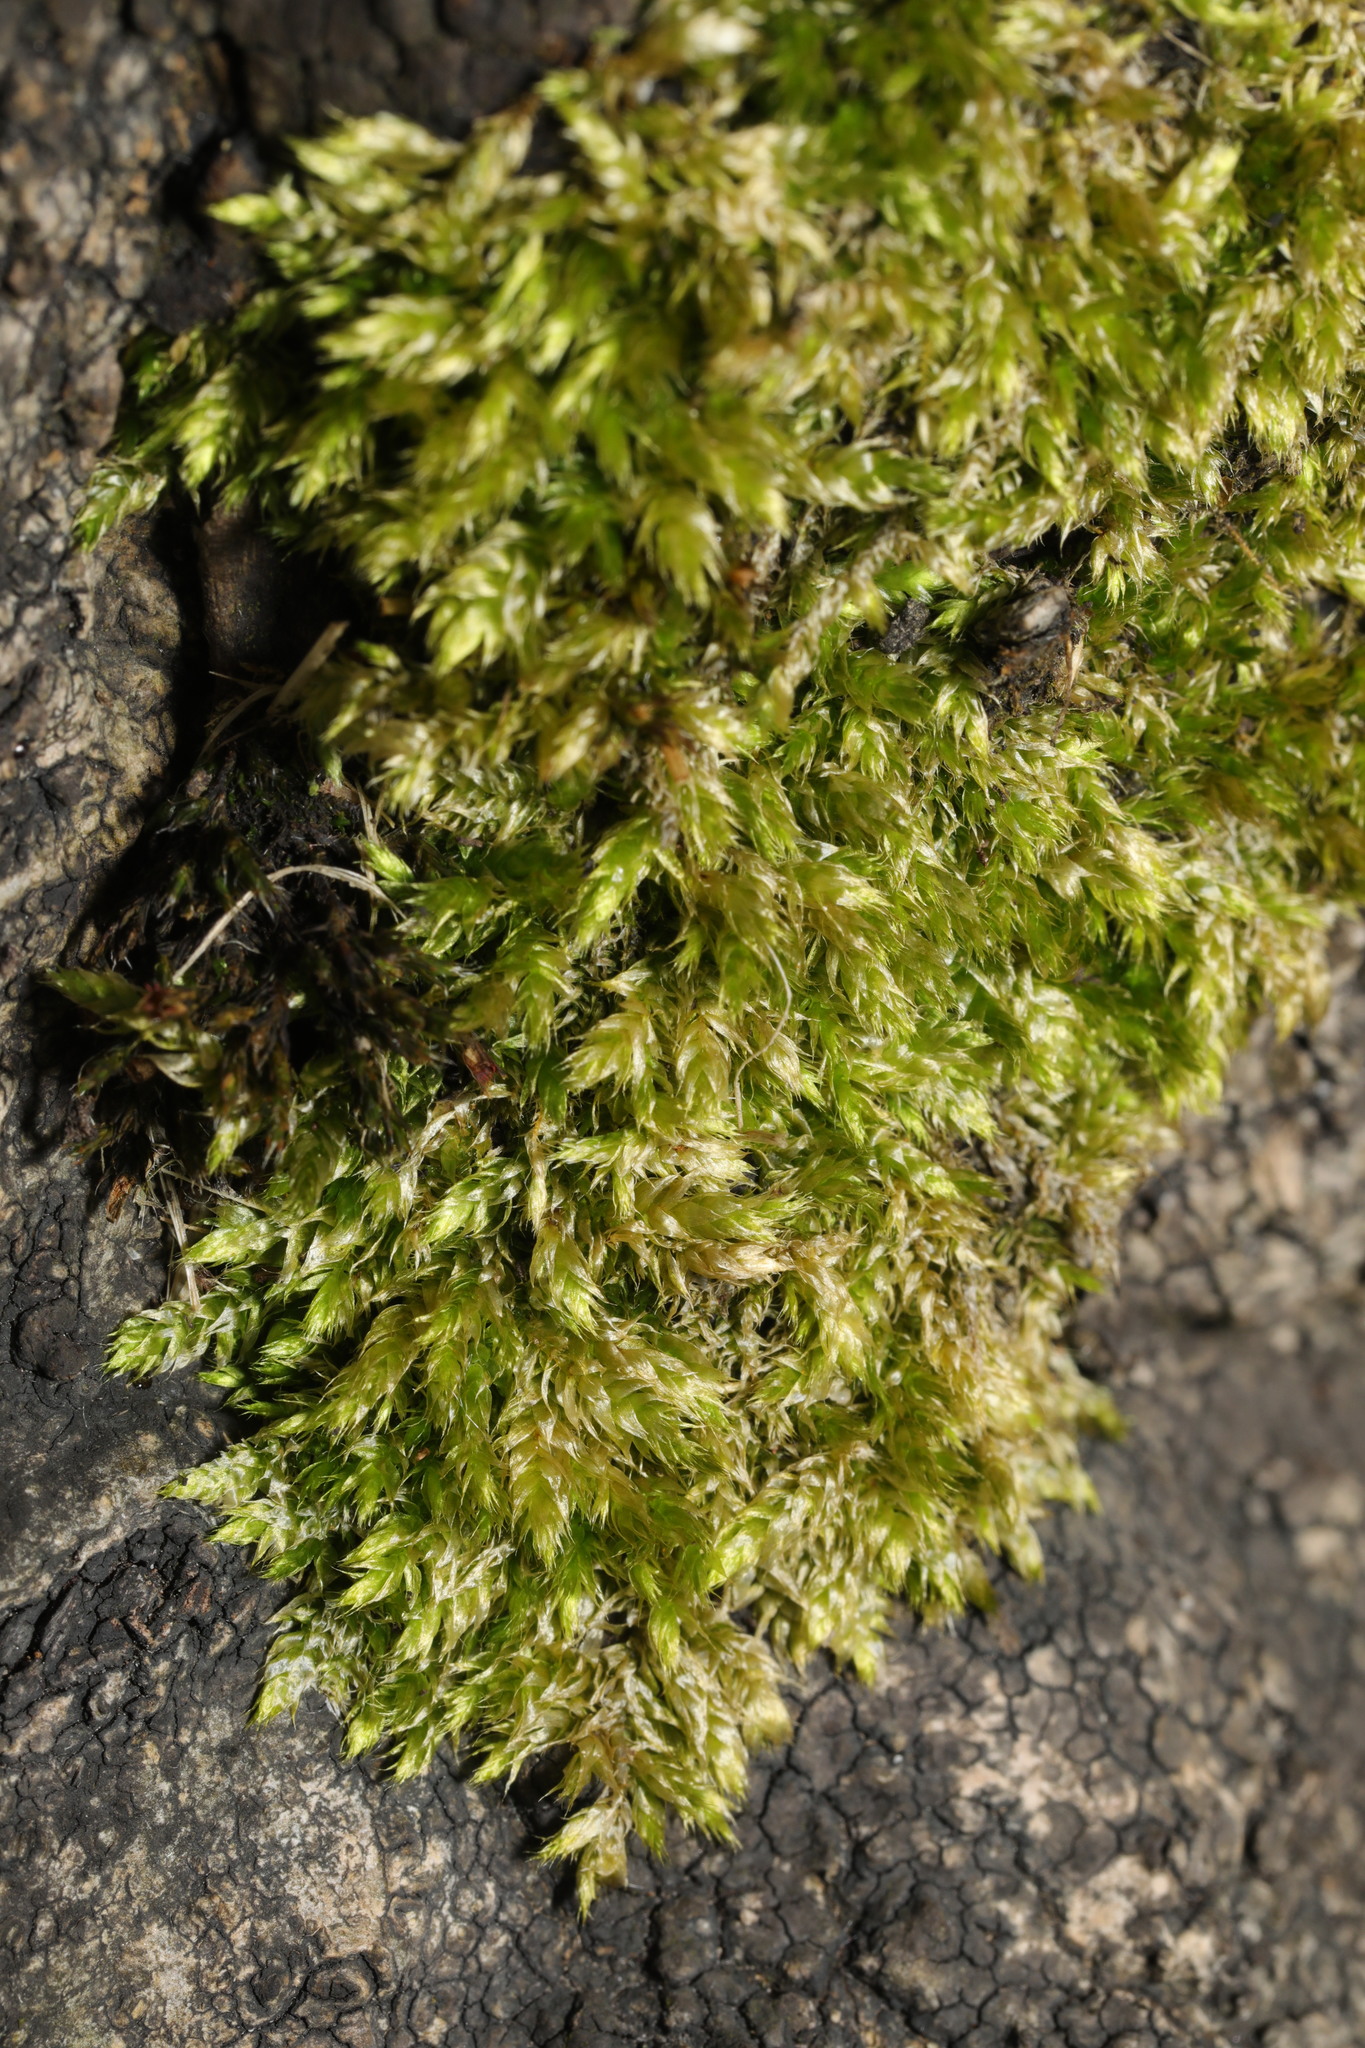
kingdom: Plantae
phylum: Bryophyta
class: Bryopsida
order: Hypnales
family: Brachytheciaceae
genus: Brachythecium
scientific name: Brachythecium rutabulum
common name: Rough-stalked feather-moss
